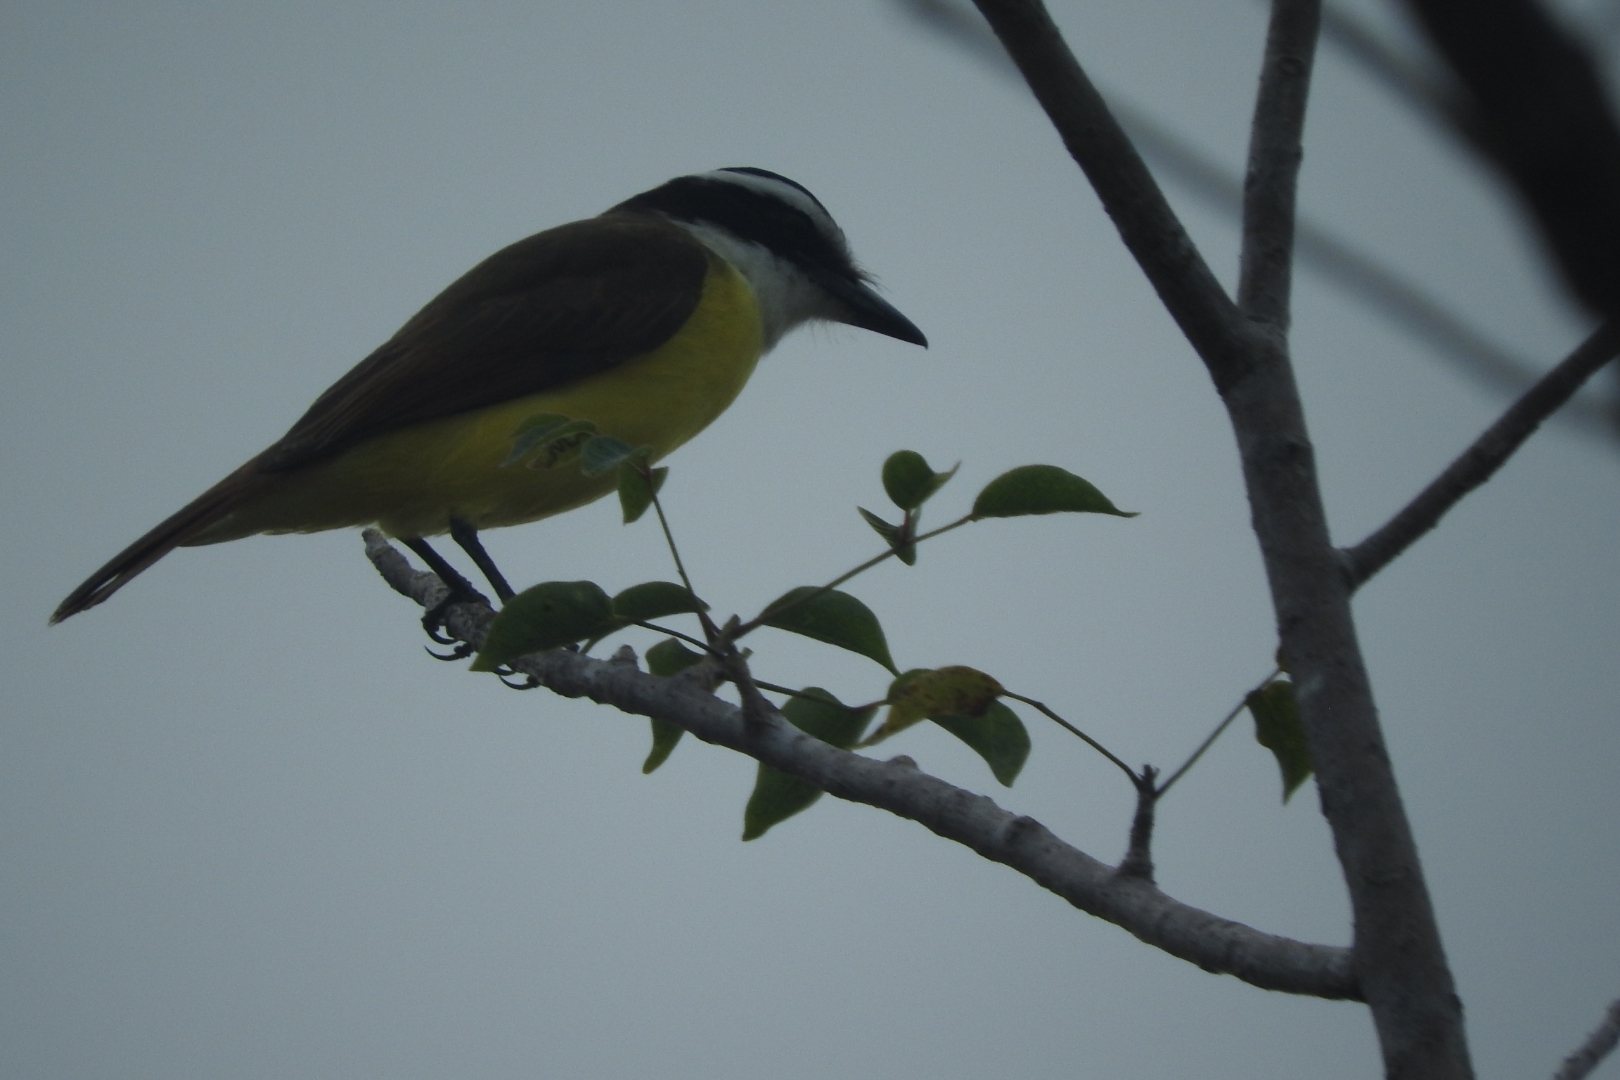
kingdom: Animalia
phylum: Chordata
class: Aves
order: Passeriformes
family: Tyrannidae
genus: Pitangus
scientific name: Pitangus sulphuratus
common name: Great kiskadee
